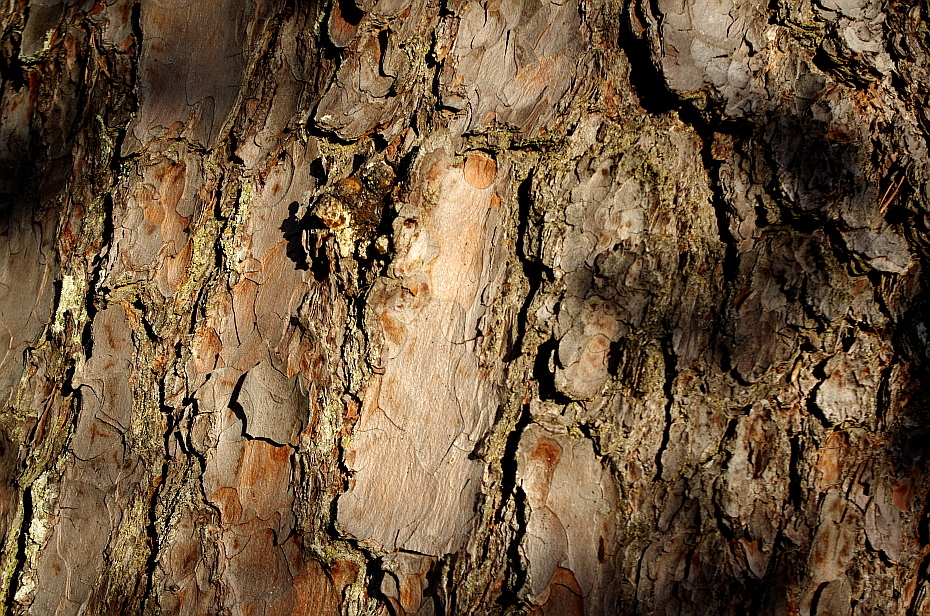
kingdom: Plantae
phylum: Tracheophyta
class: Pinopsida
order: Pinales
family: Pinaceae
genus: Pinus
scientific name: Pinus sylvestris
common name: Scots pine
